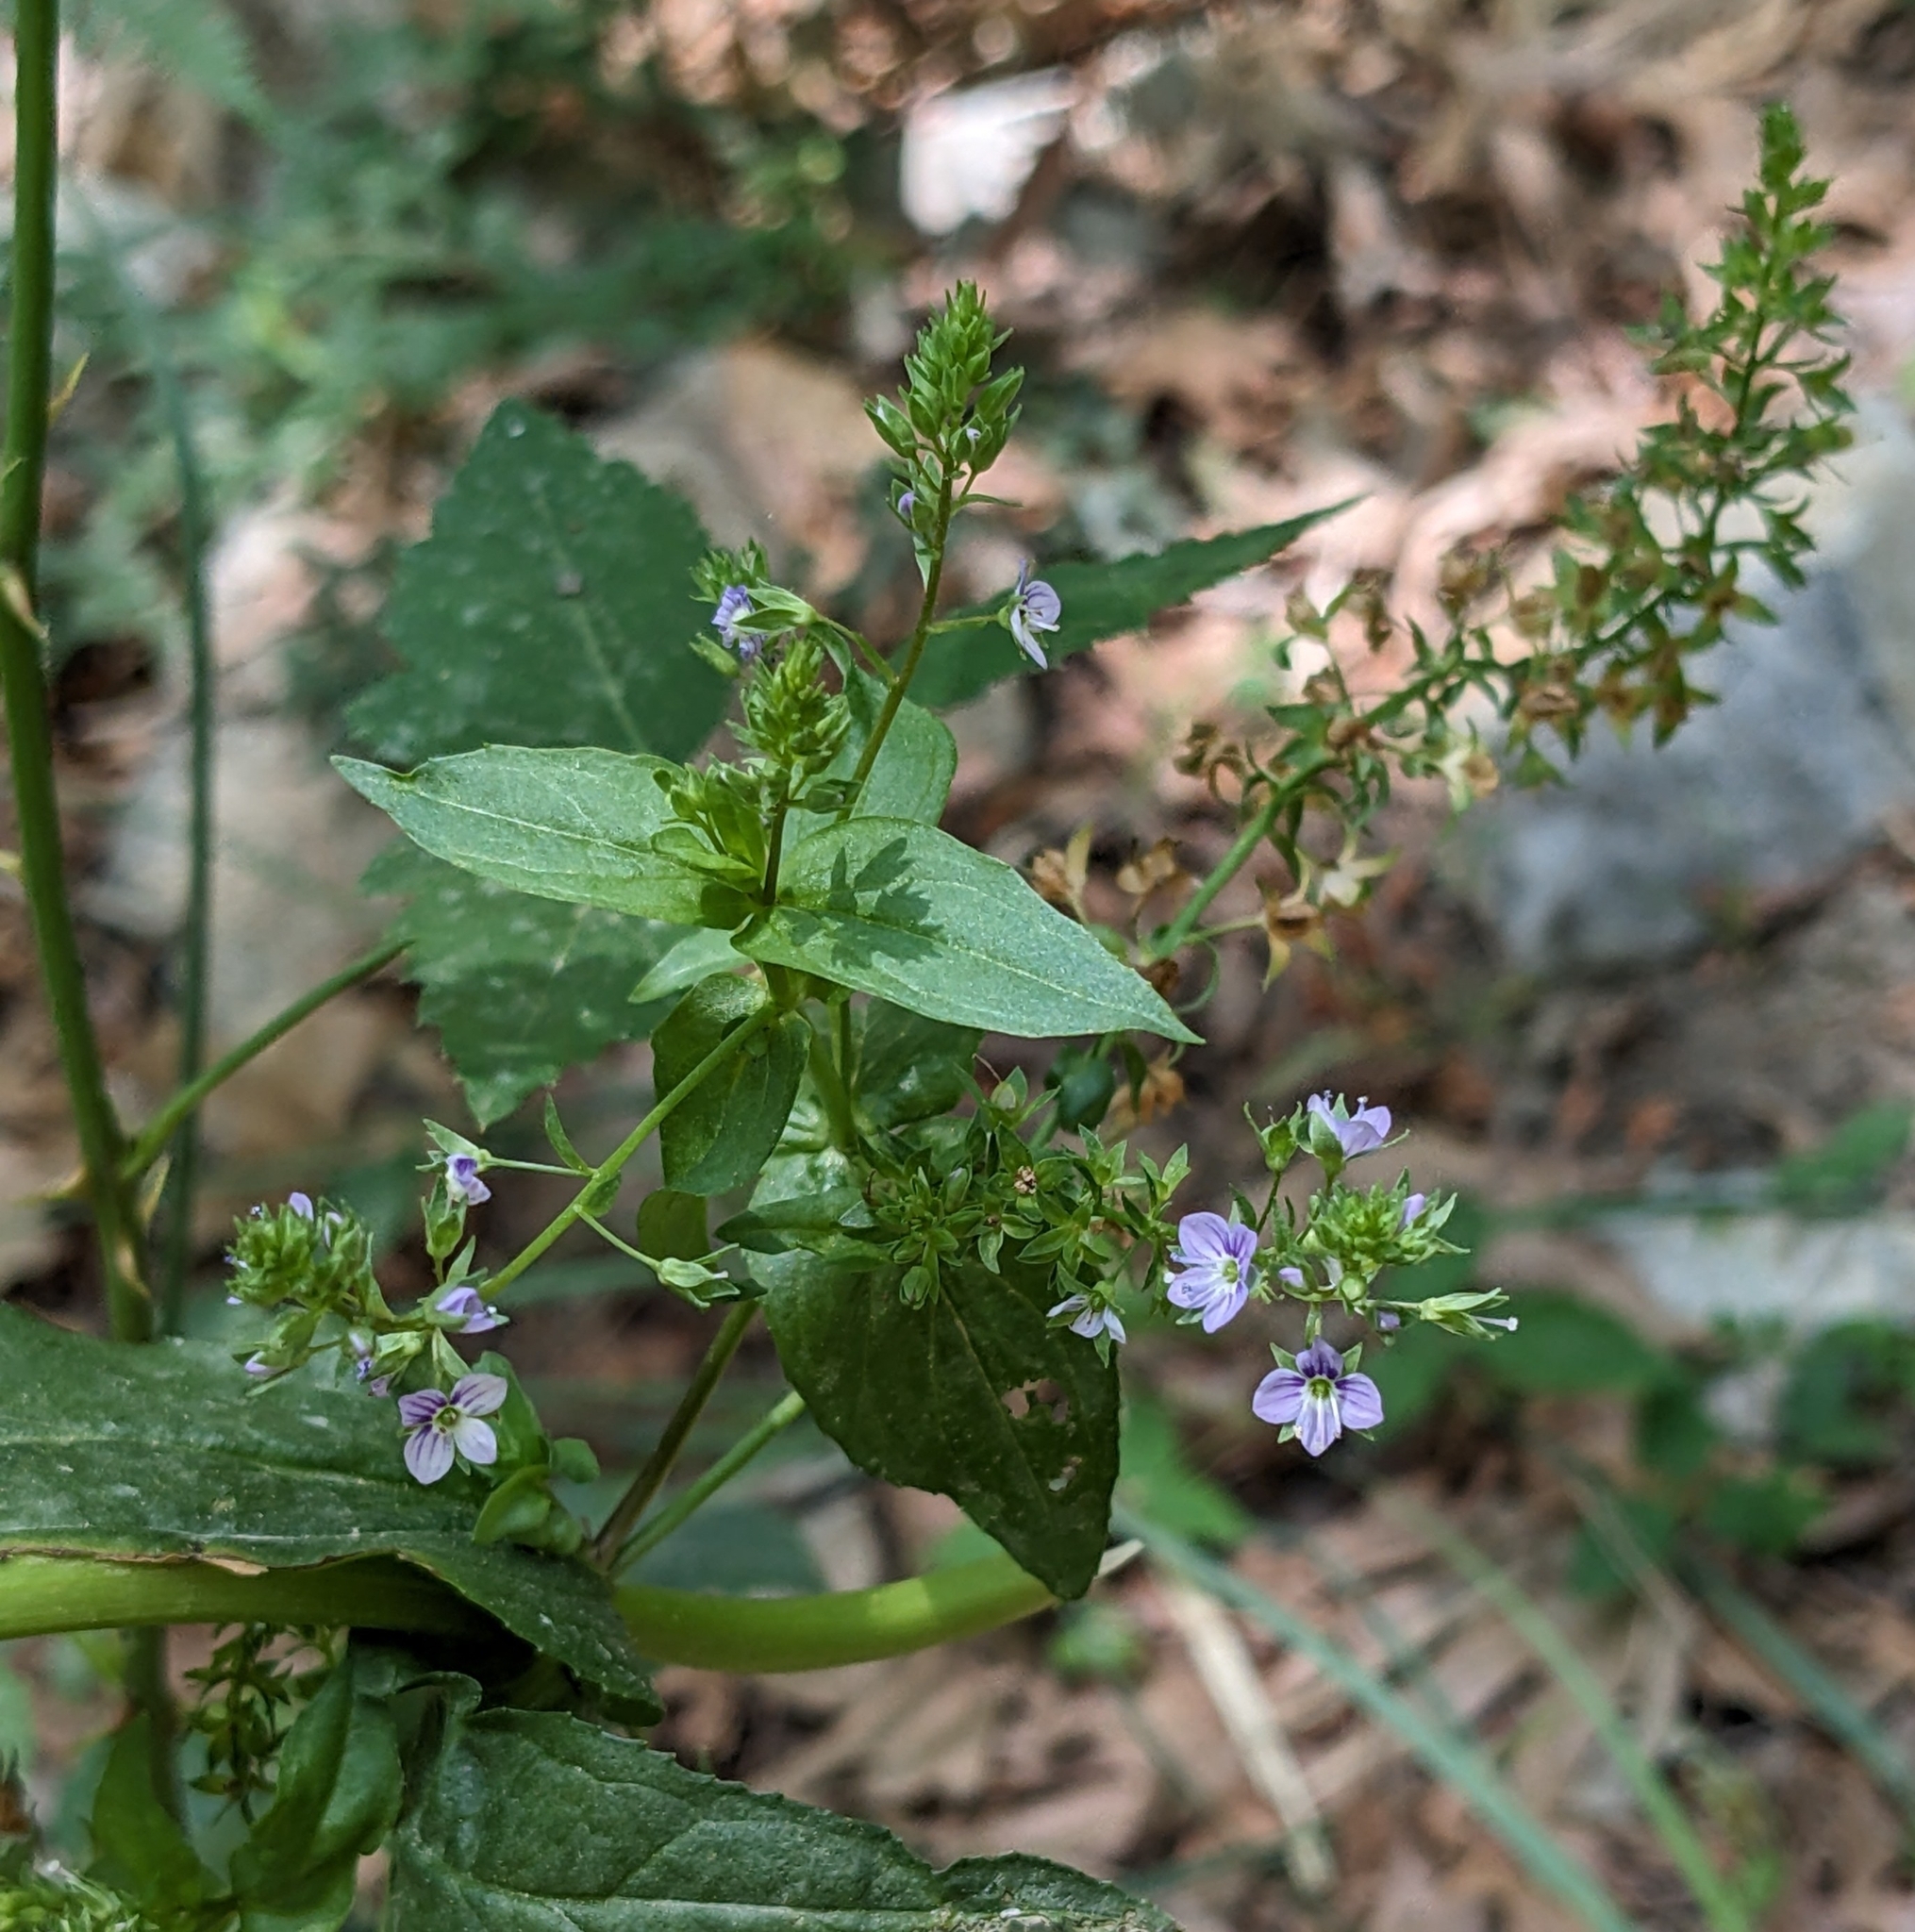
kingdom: Plantae
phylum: Tracheophyta
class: Magnoliopsida
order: Lamiales
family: Plantaginaceae
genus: Veronica
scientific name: Veronica anagallis-aquatica
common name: Water speedwell
